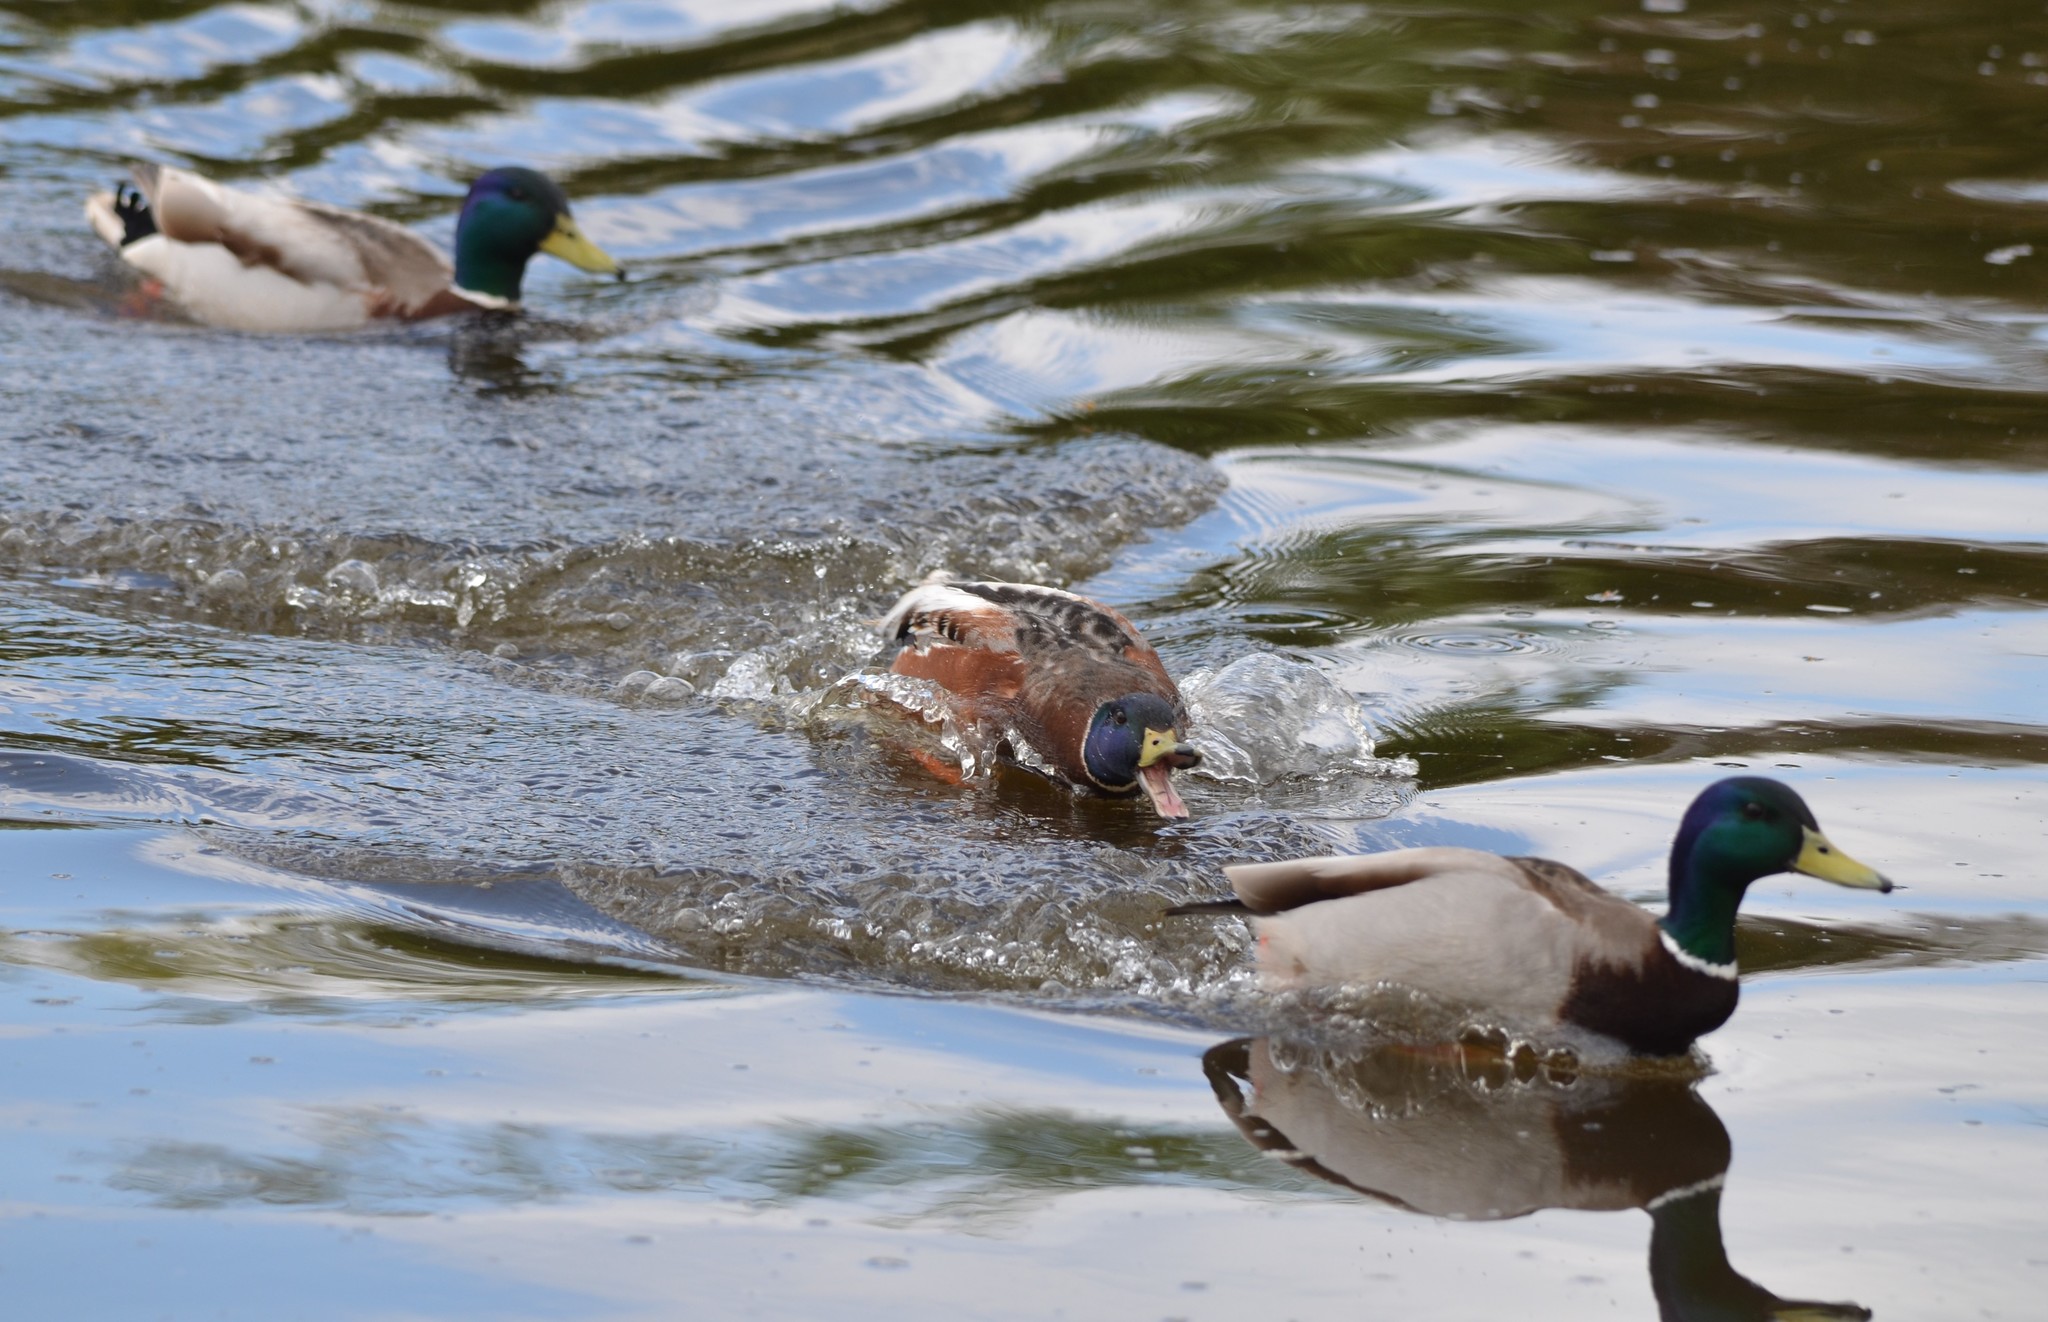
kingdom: Animalia
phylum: Chordata
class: Aves
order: Anseriformes
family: Anatidae
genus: Anas
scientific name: Anas platyrhynchos
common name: Mallard
